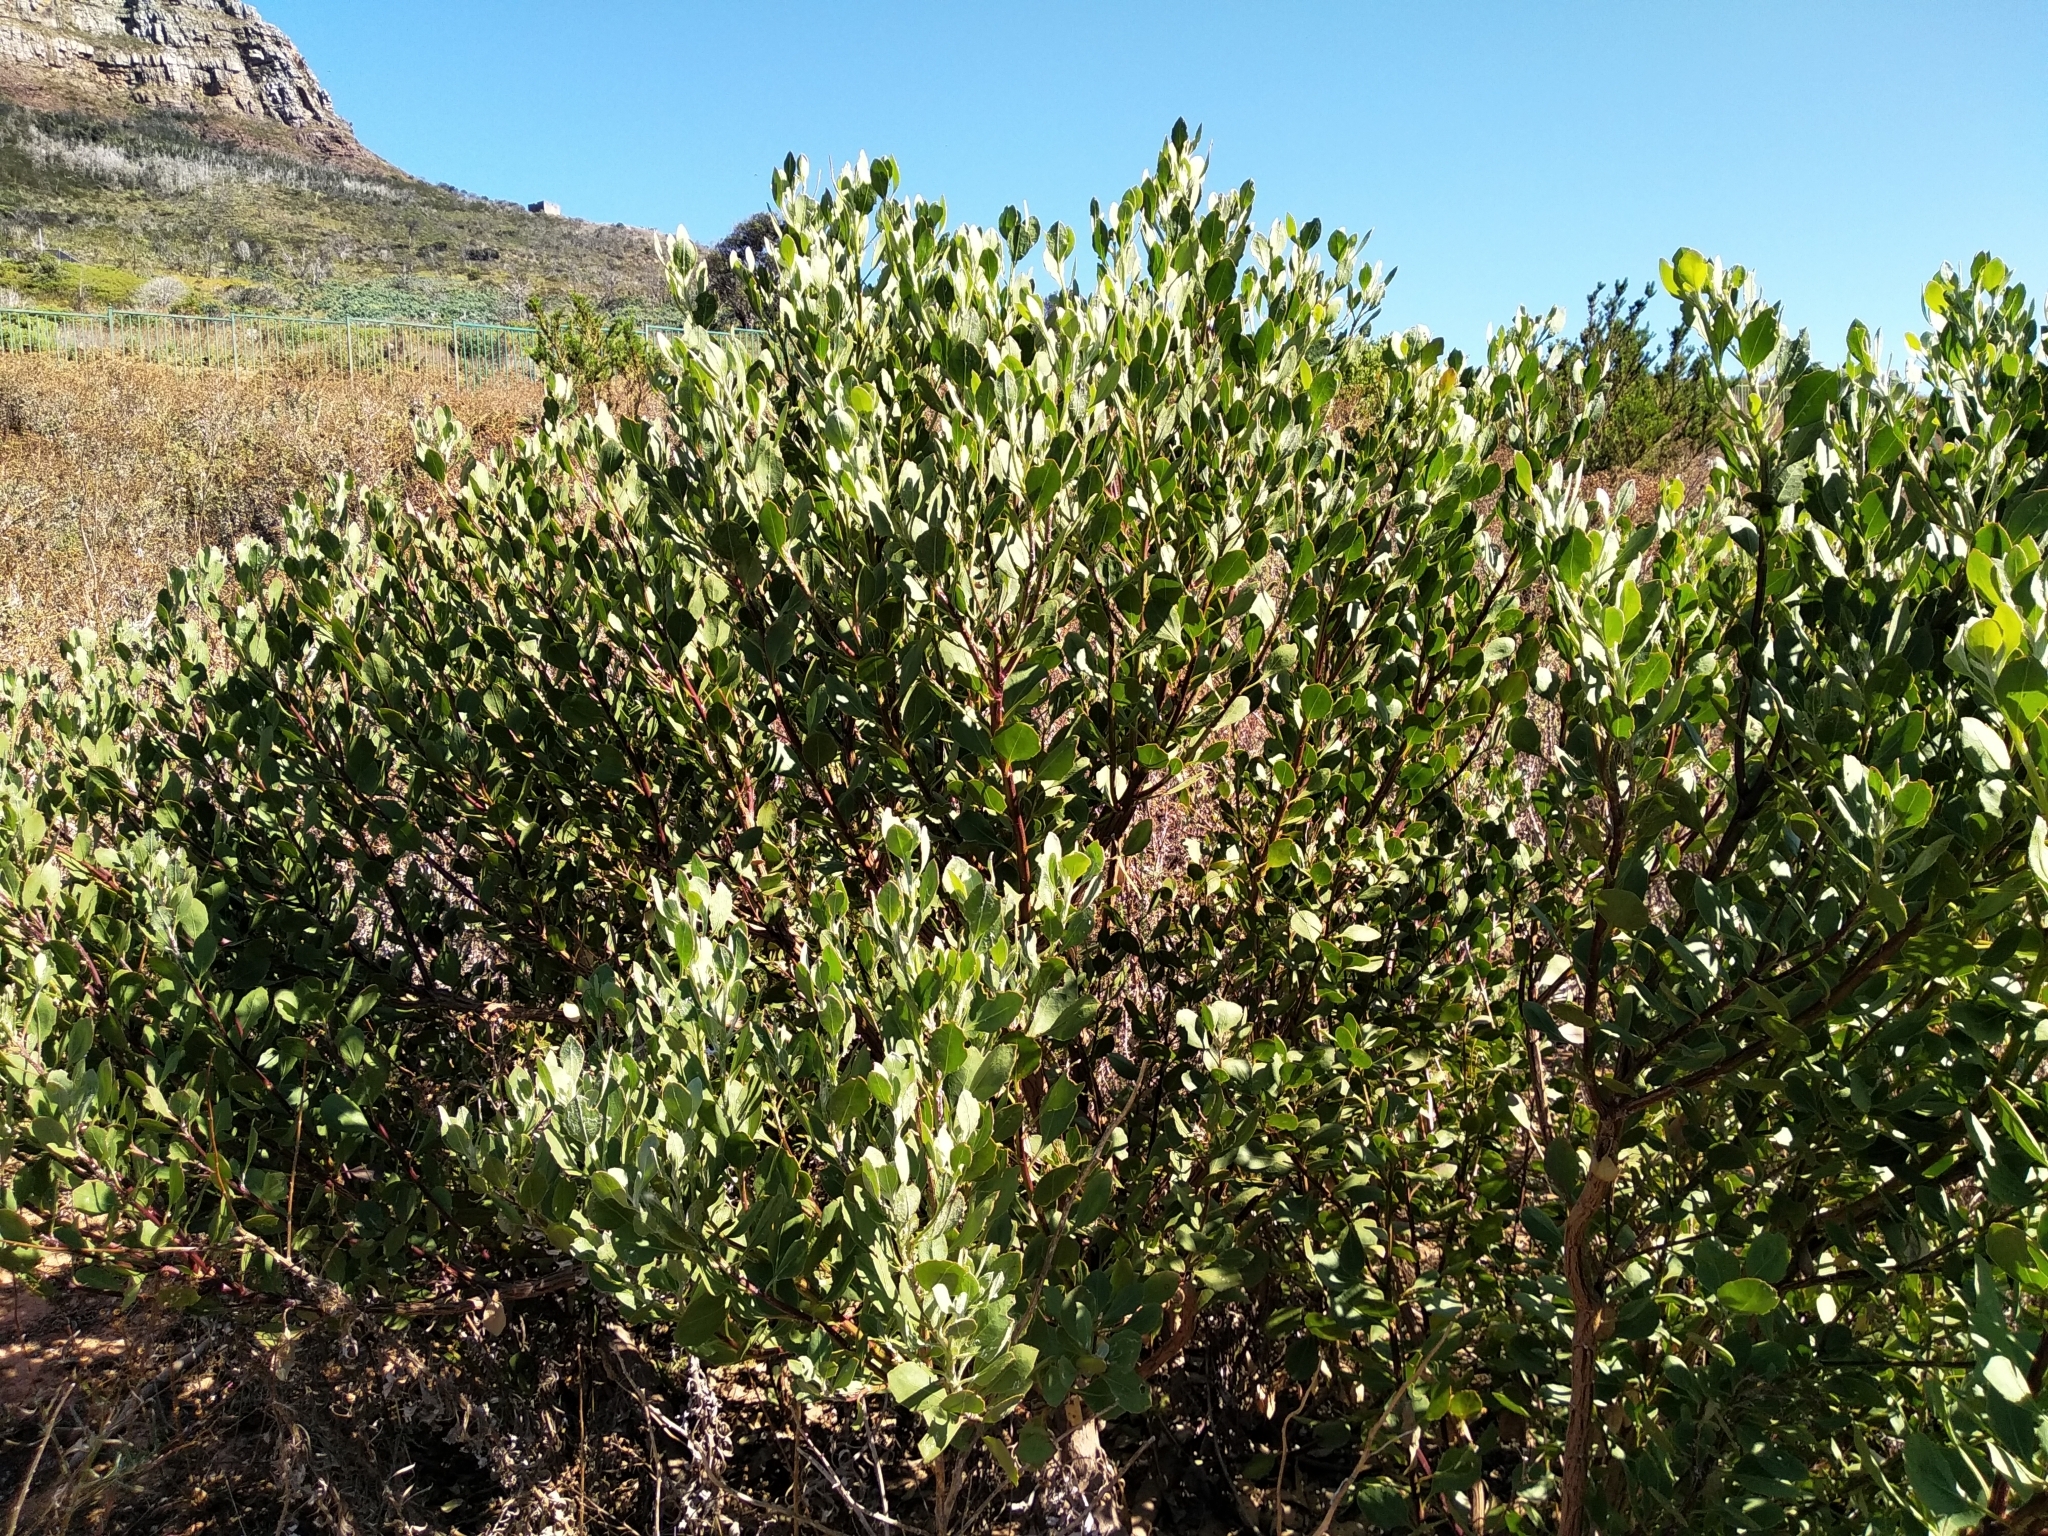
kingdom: Plantae
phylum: Tracheophyta
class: Magnoliopsida
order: Asterales
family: Asteraceae
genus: Osteospermum
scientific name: Osteospermum moniliferum
